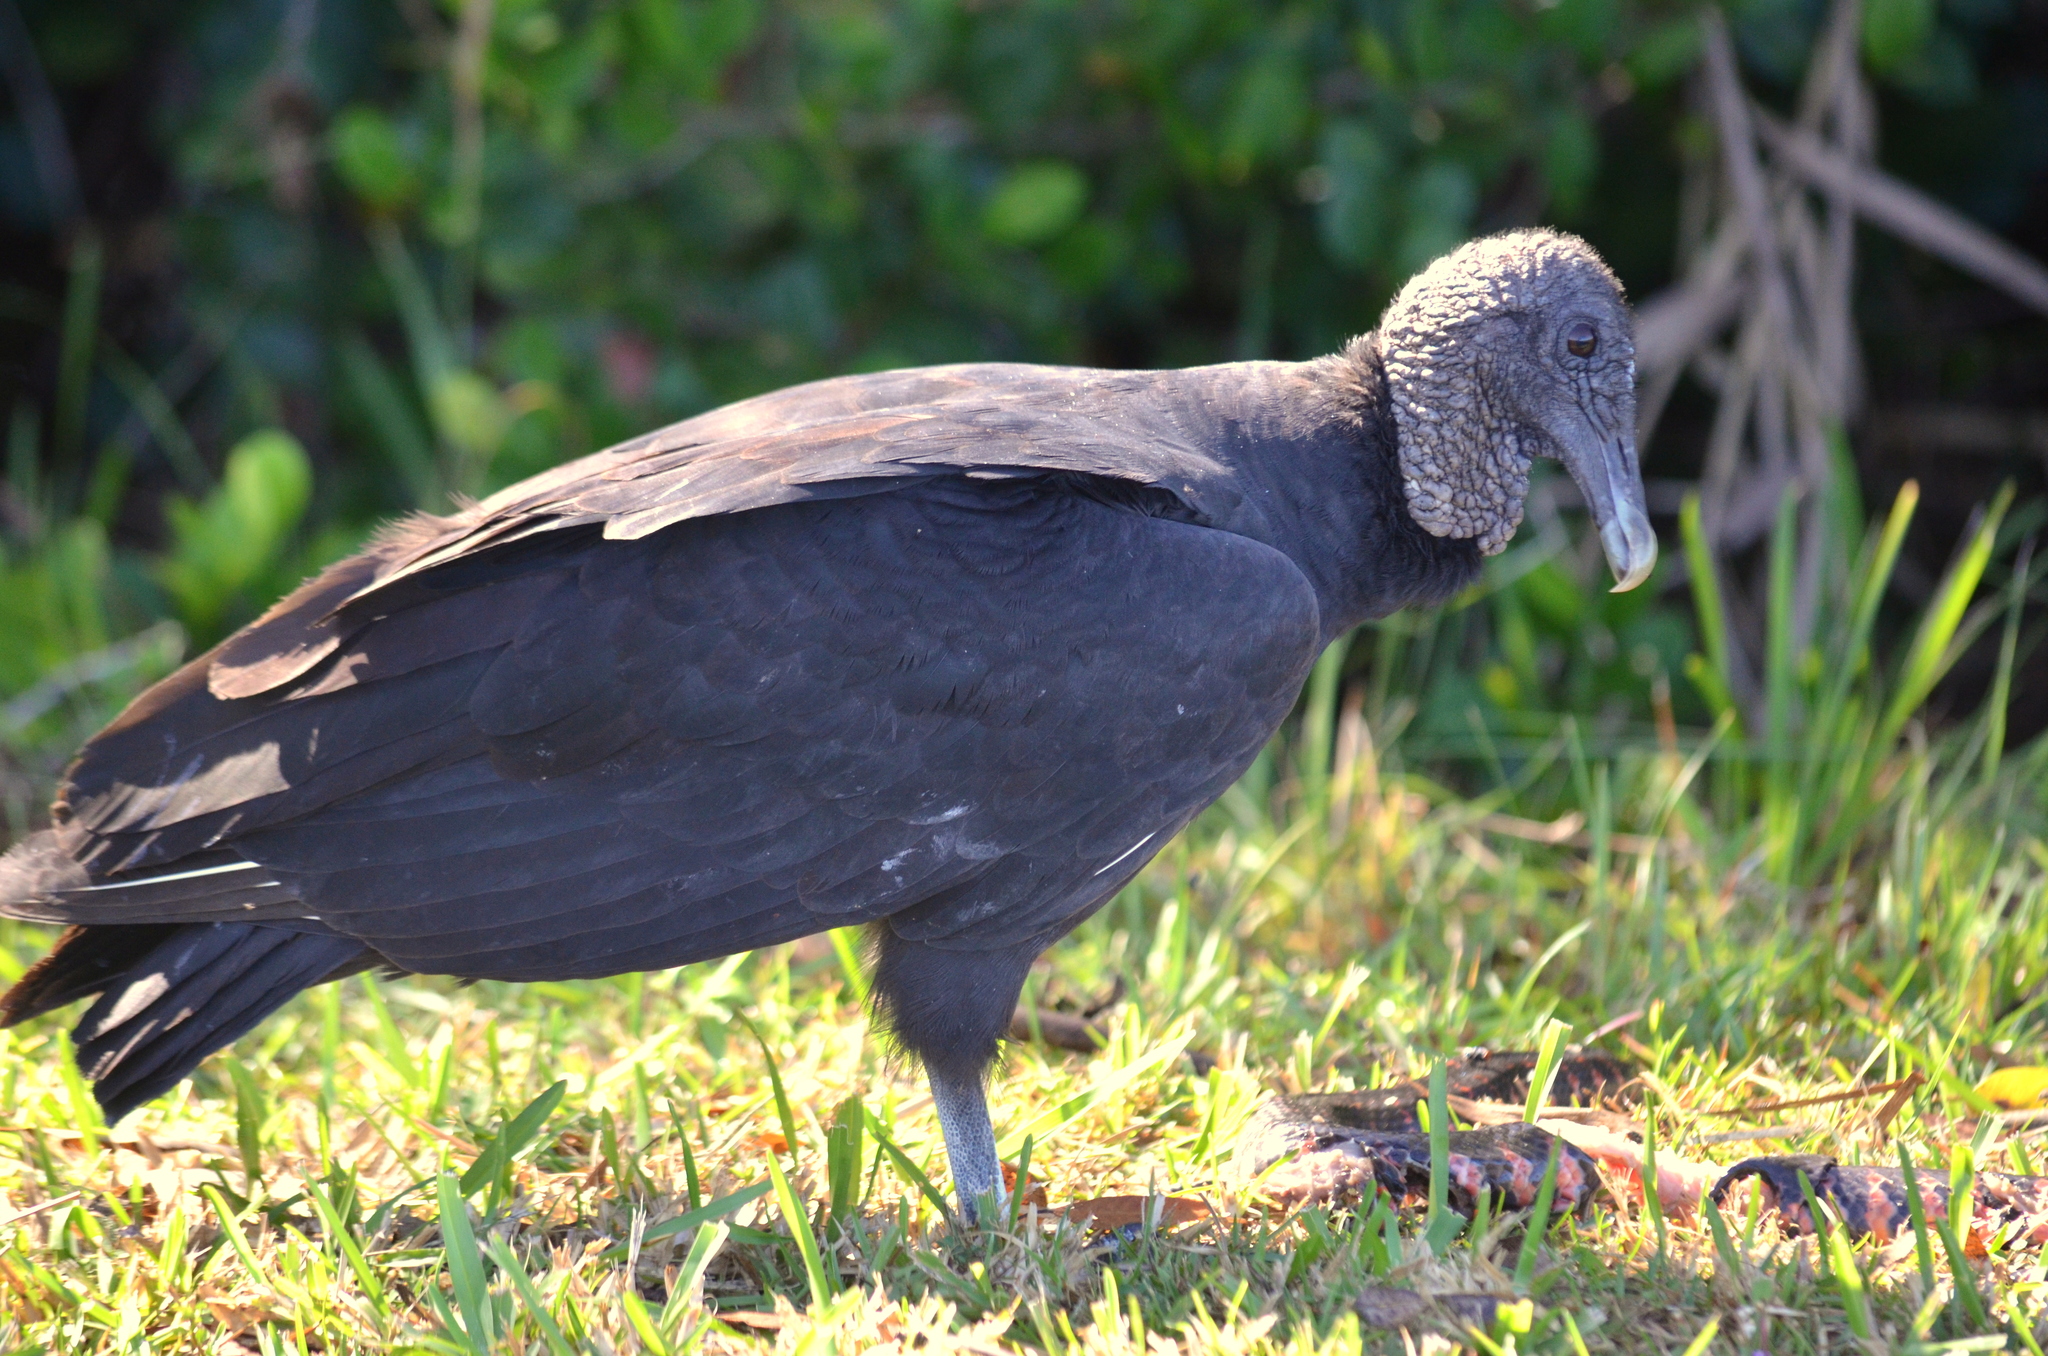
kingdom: Animalia
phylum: Chordata
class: Aves
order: Accipitriformes
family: Cathartidae
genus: Coragyps
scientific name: Coragyps atratus
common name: Black vulture
